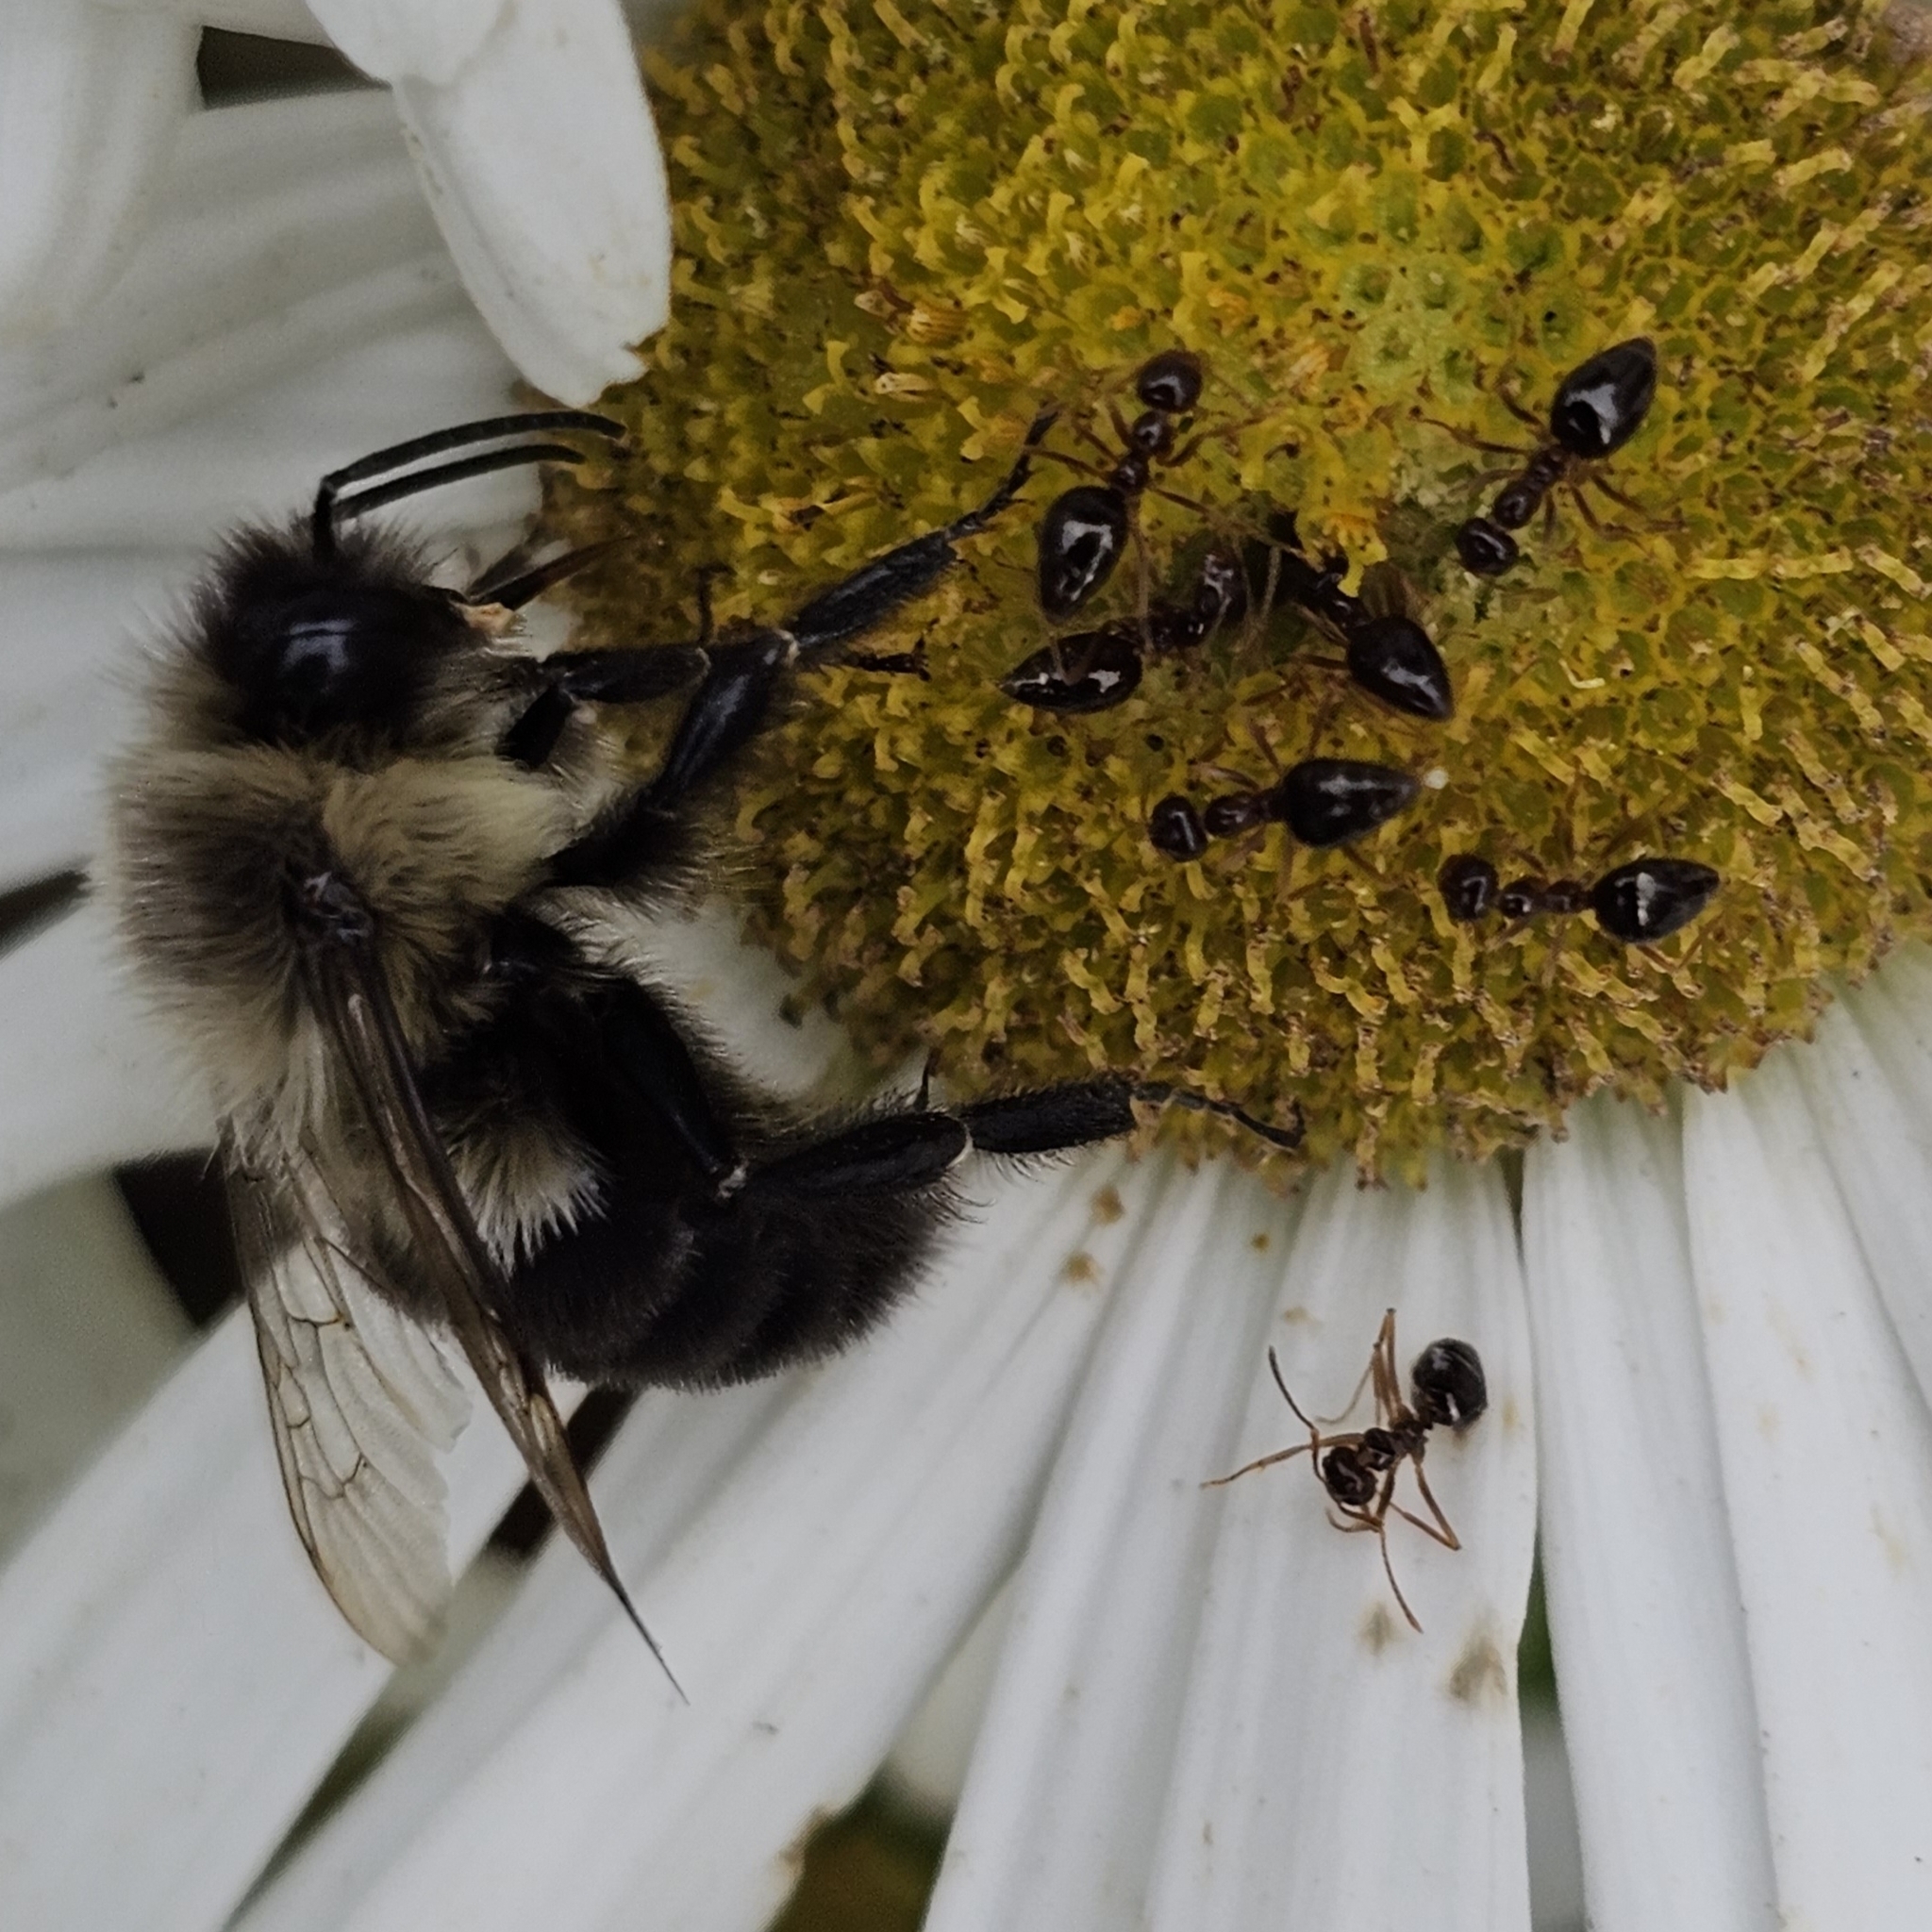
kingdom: Animalia
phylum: Arthropoda
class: Insecta
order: Hymenoptera
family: Formicidae
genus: Prenolepis
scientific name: Prenolepis imparis
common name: Small honey ant
